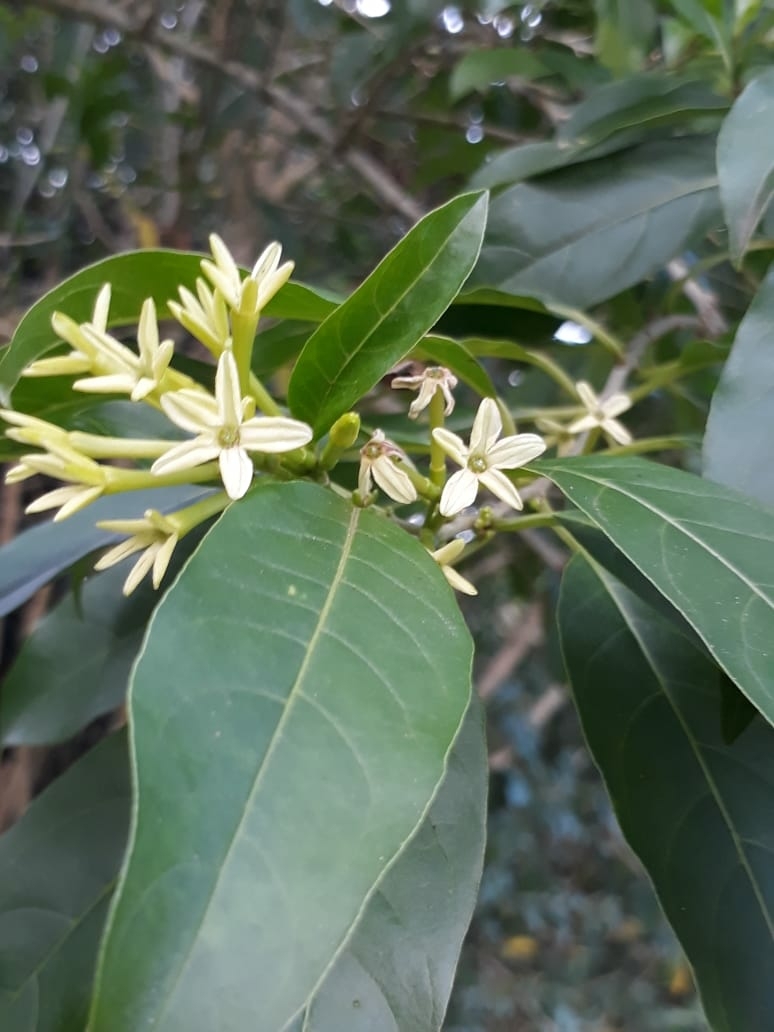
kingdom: Plantae
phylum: Tracheophyta
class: Magnoliopsida
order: Solanales
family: Solanaceae
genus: Cestrum
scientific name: Cestrum laevigatum
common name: Inkberry
